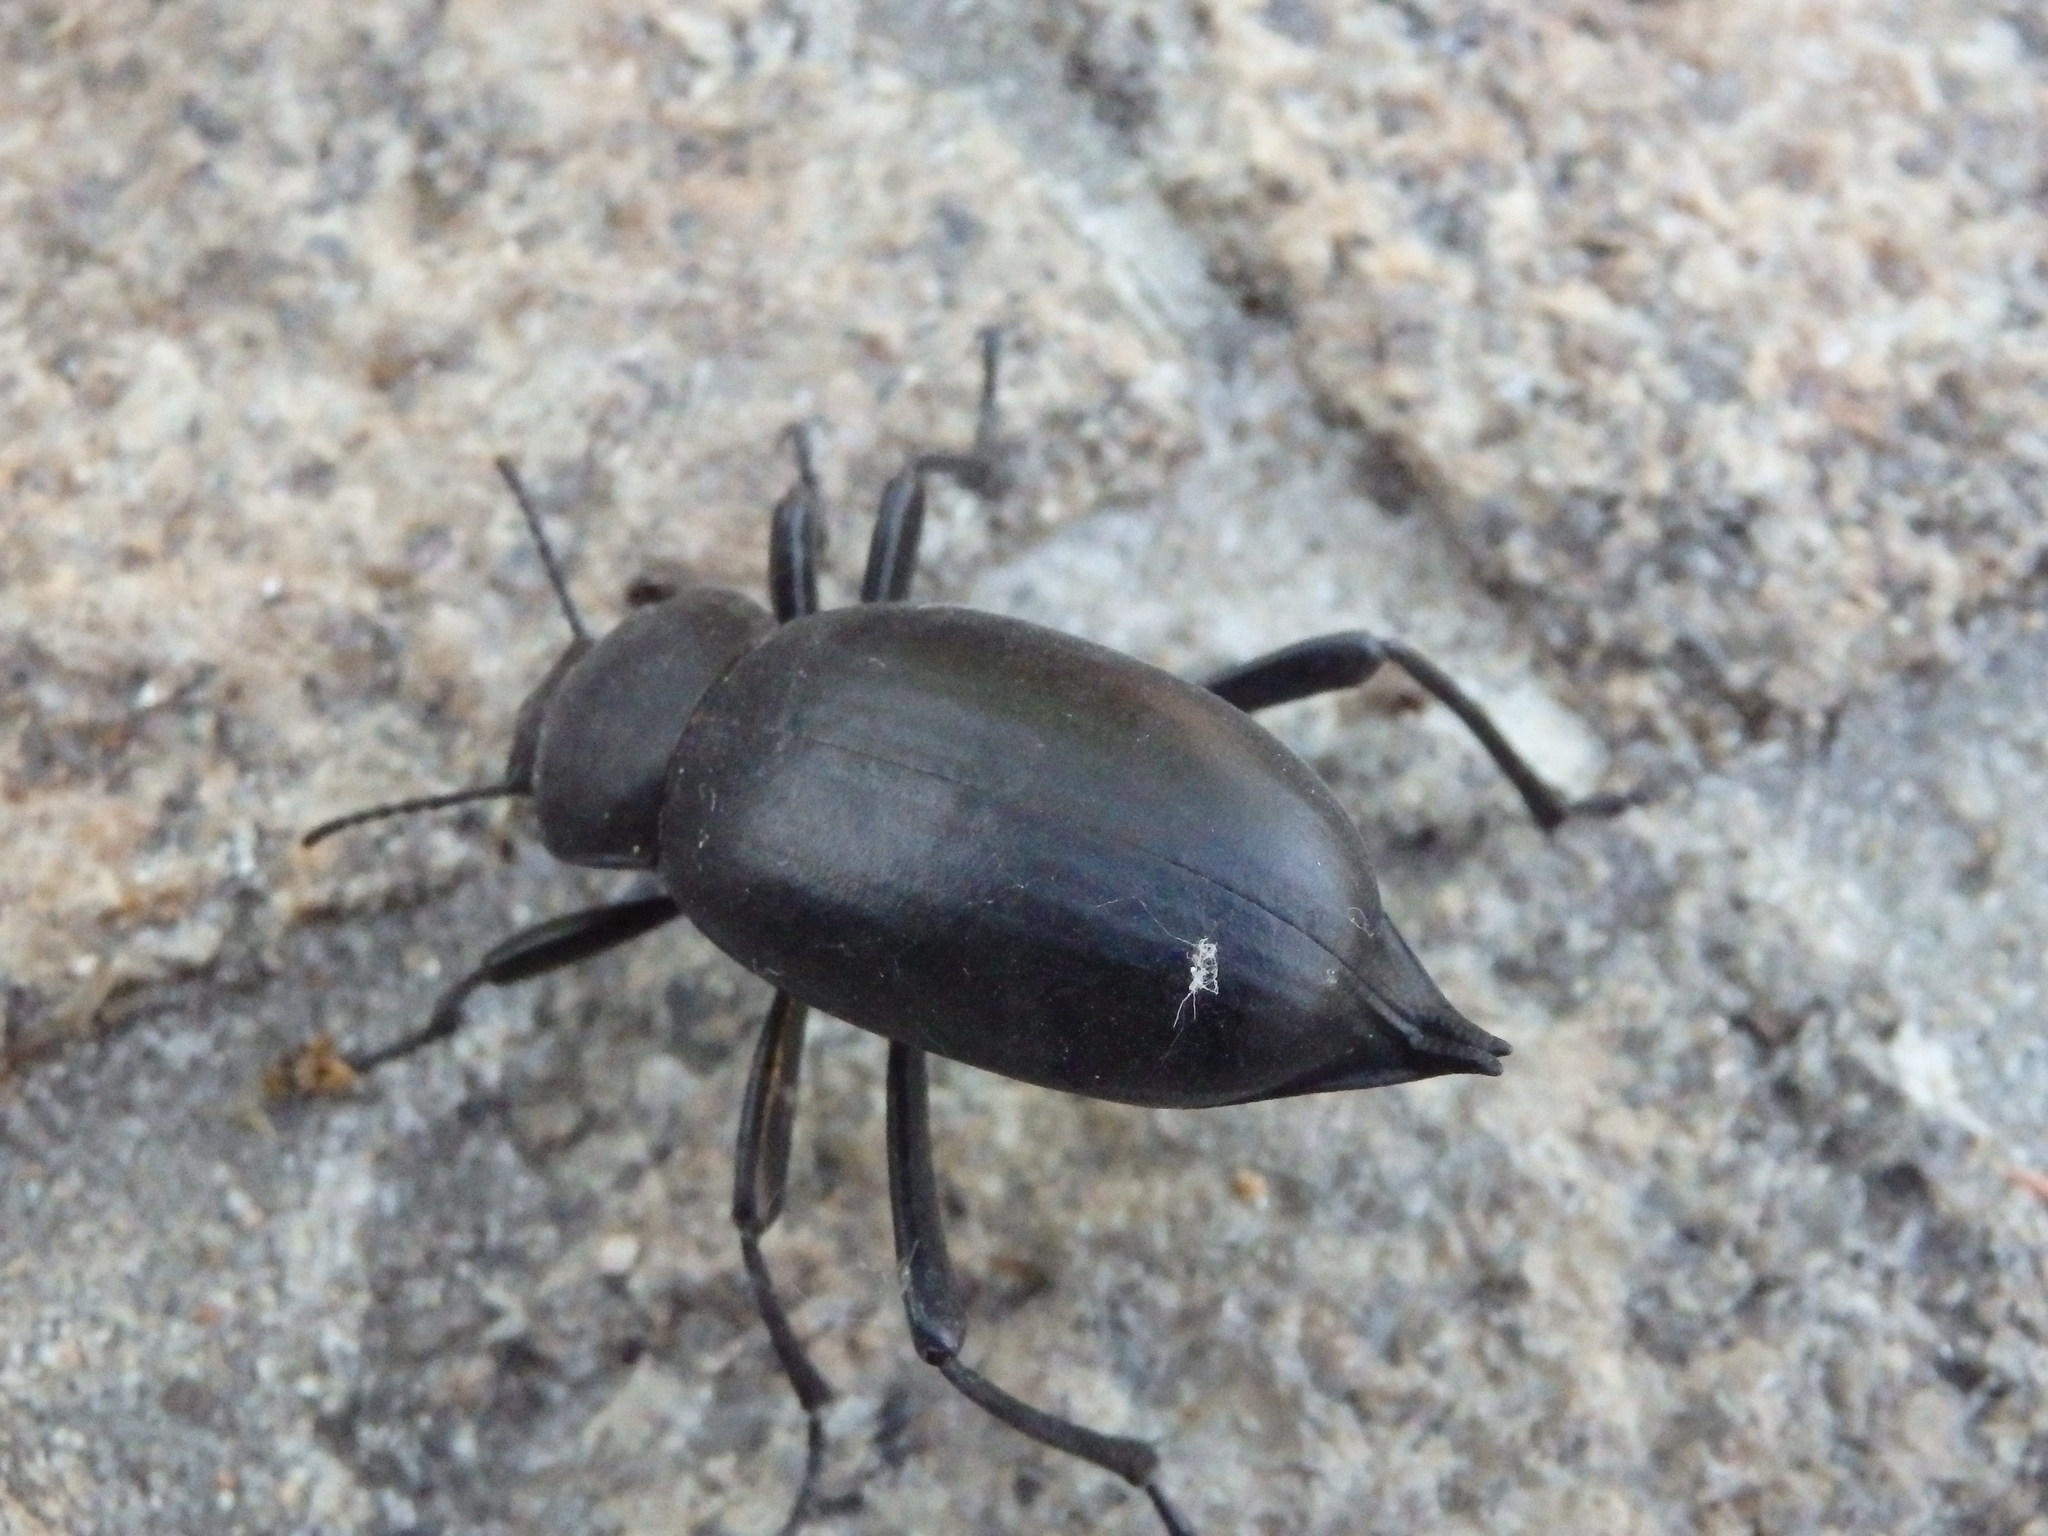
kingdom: Animalia
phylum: Arthropoda
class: Insecta
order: Coleoptera
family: Tenebrionidae
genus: Blaps
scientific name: Blaps hispanica
